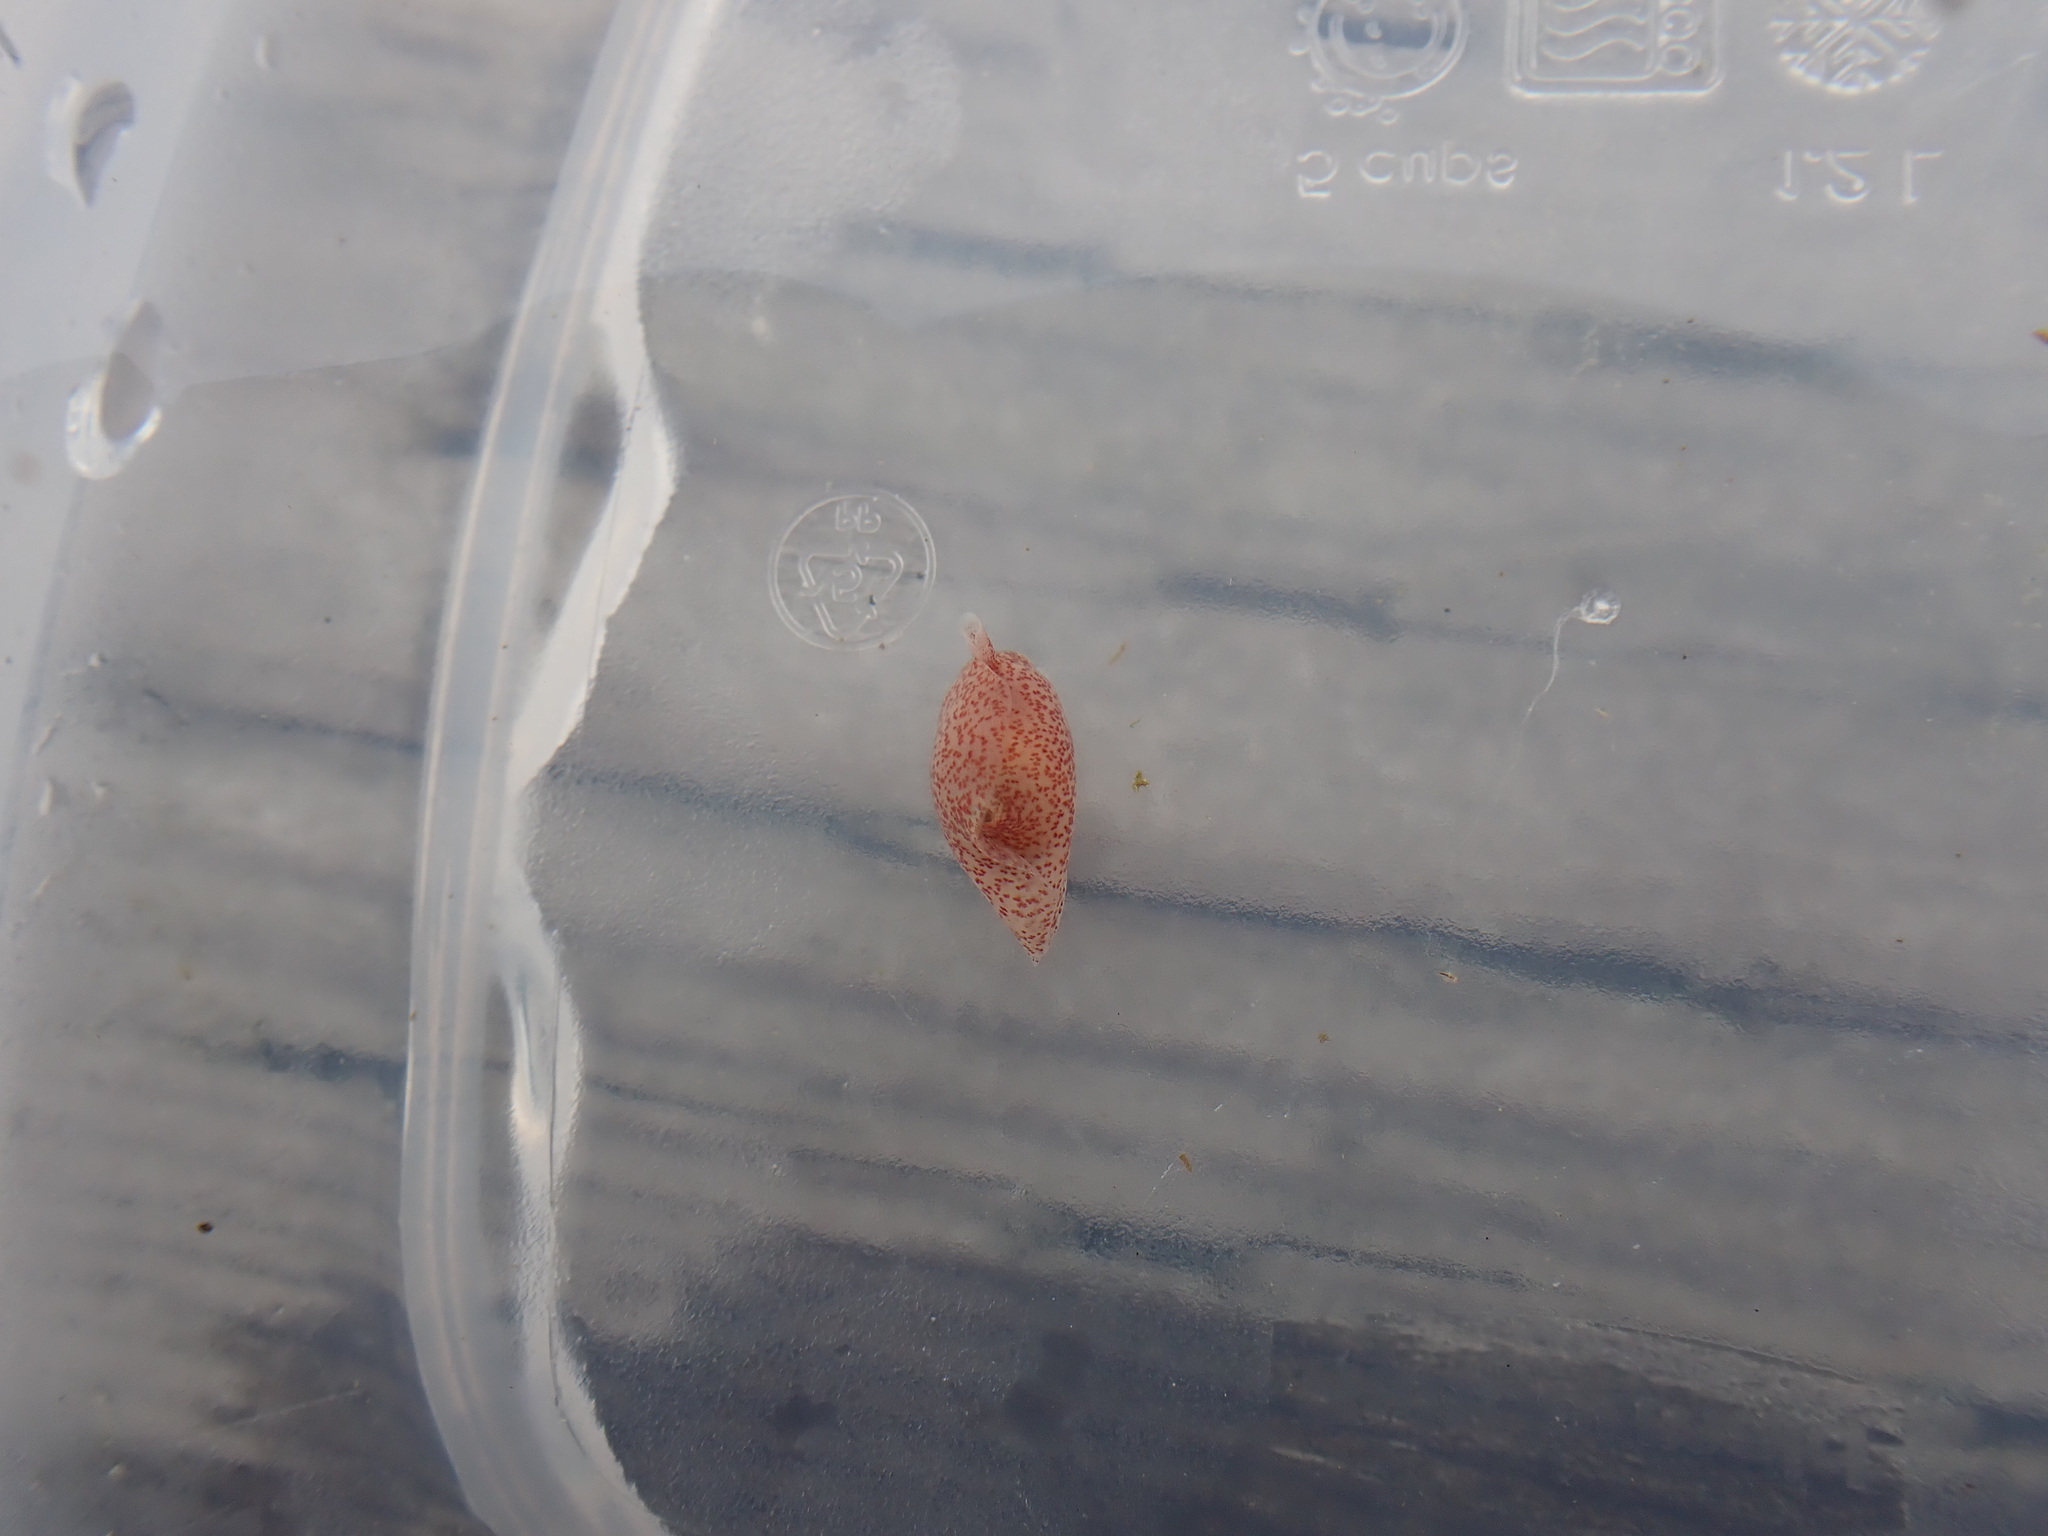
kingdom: Animalia
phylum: Mollusca
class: Gastropoda
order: Cephalaspidea
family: Gastropteridae
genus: Gastropteron
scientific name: Gastropteron pacificum
